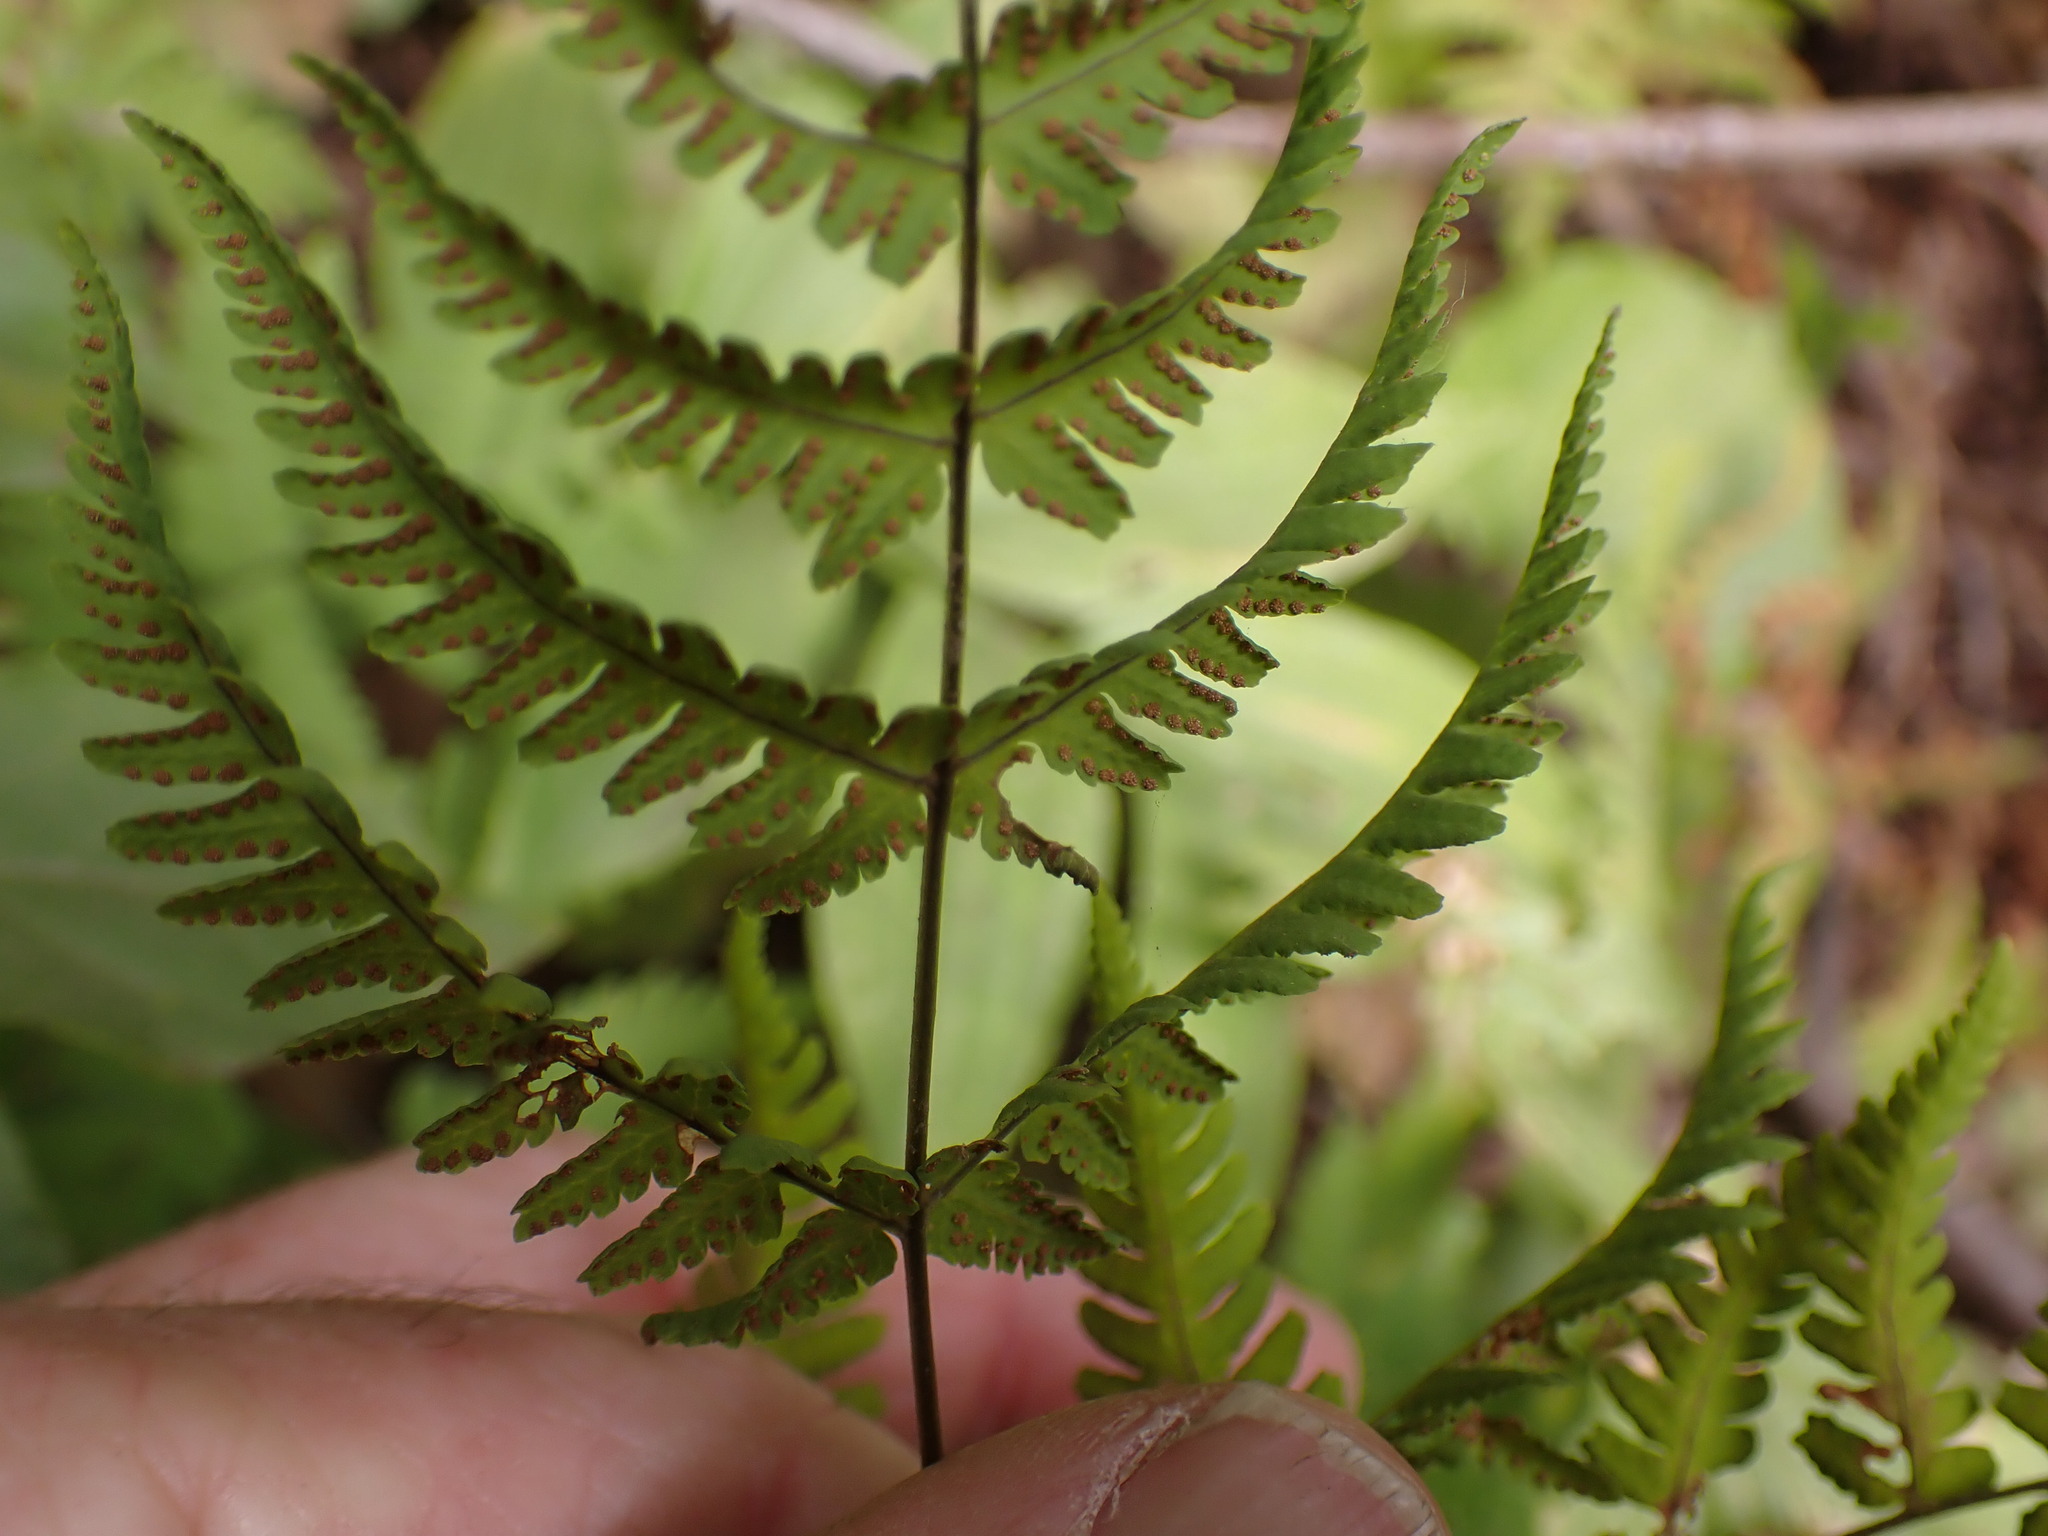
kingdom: Plantae
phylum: Tracheophyta
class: Polypodiopsida
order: Polypodiales
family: Cystopteridaceae
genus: Gymnocarpium
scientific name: Gymnocarpium disjunctum
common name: Western oak fern
